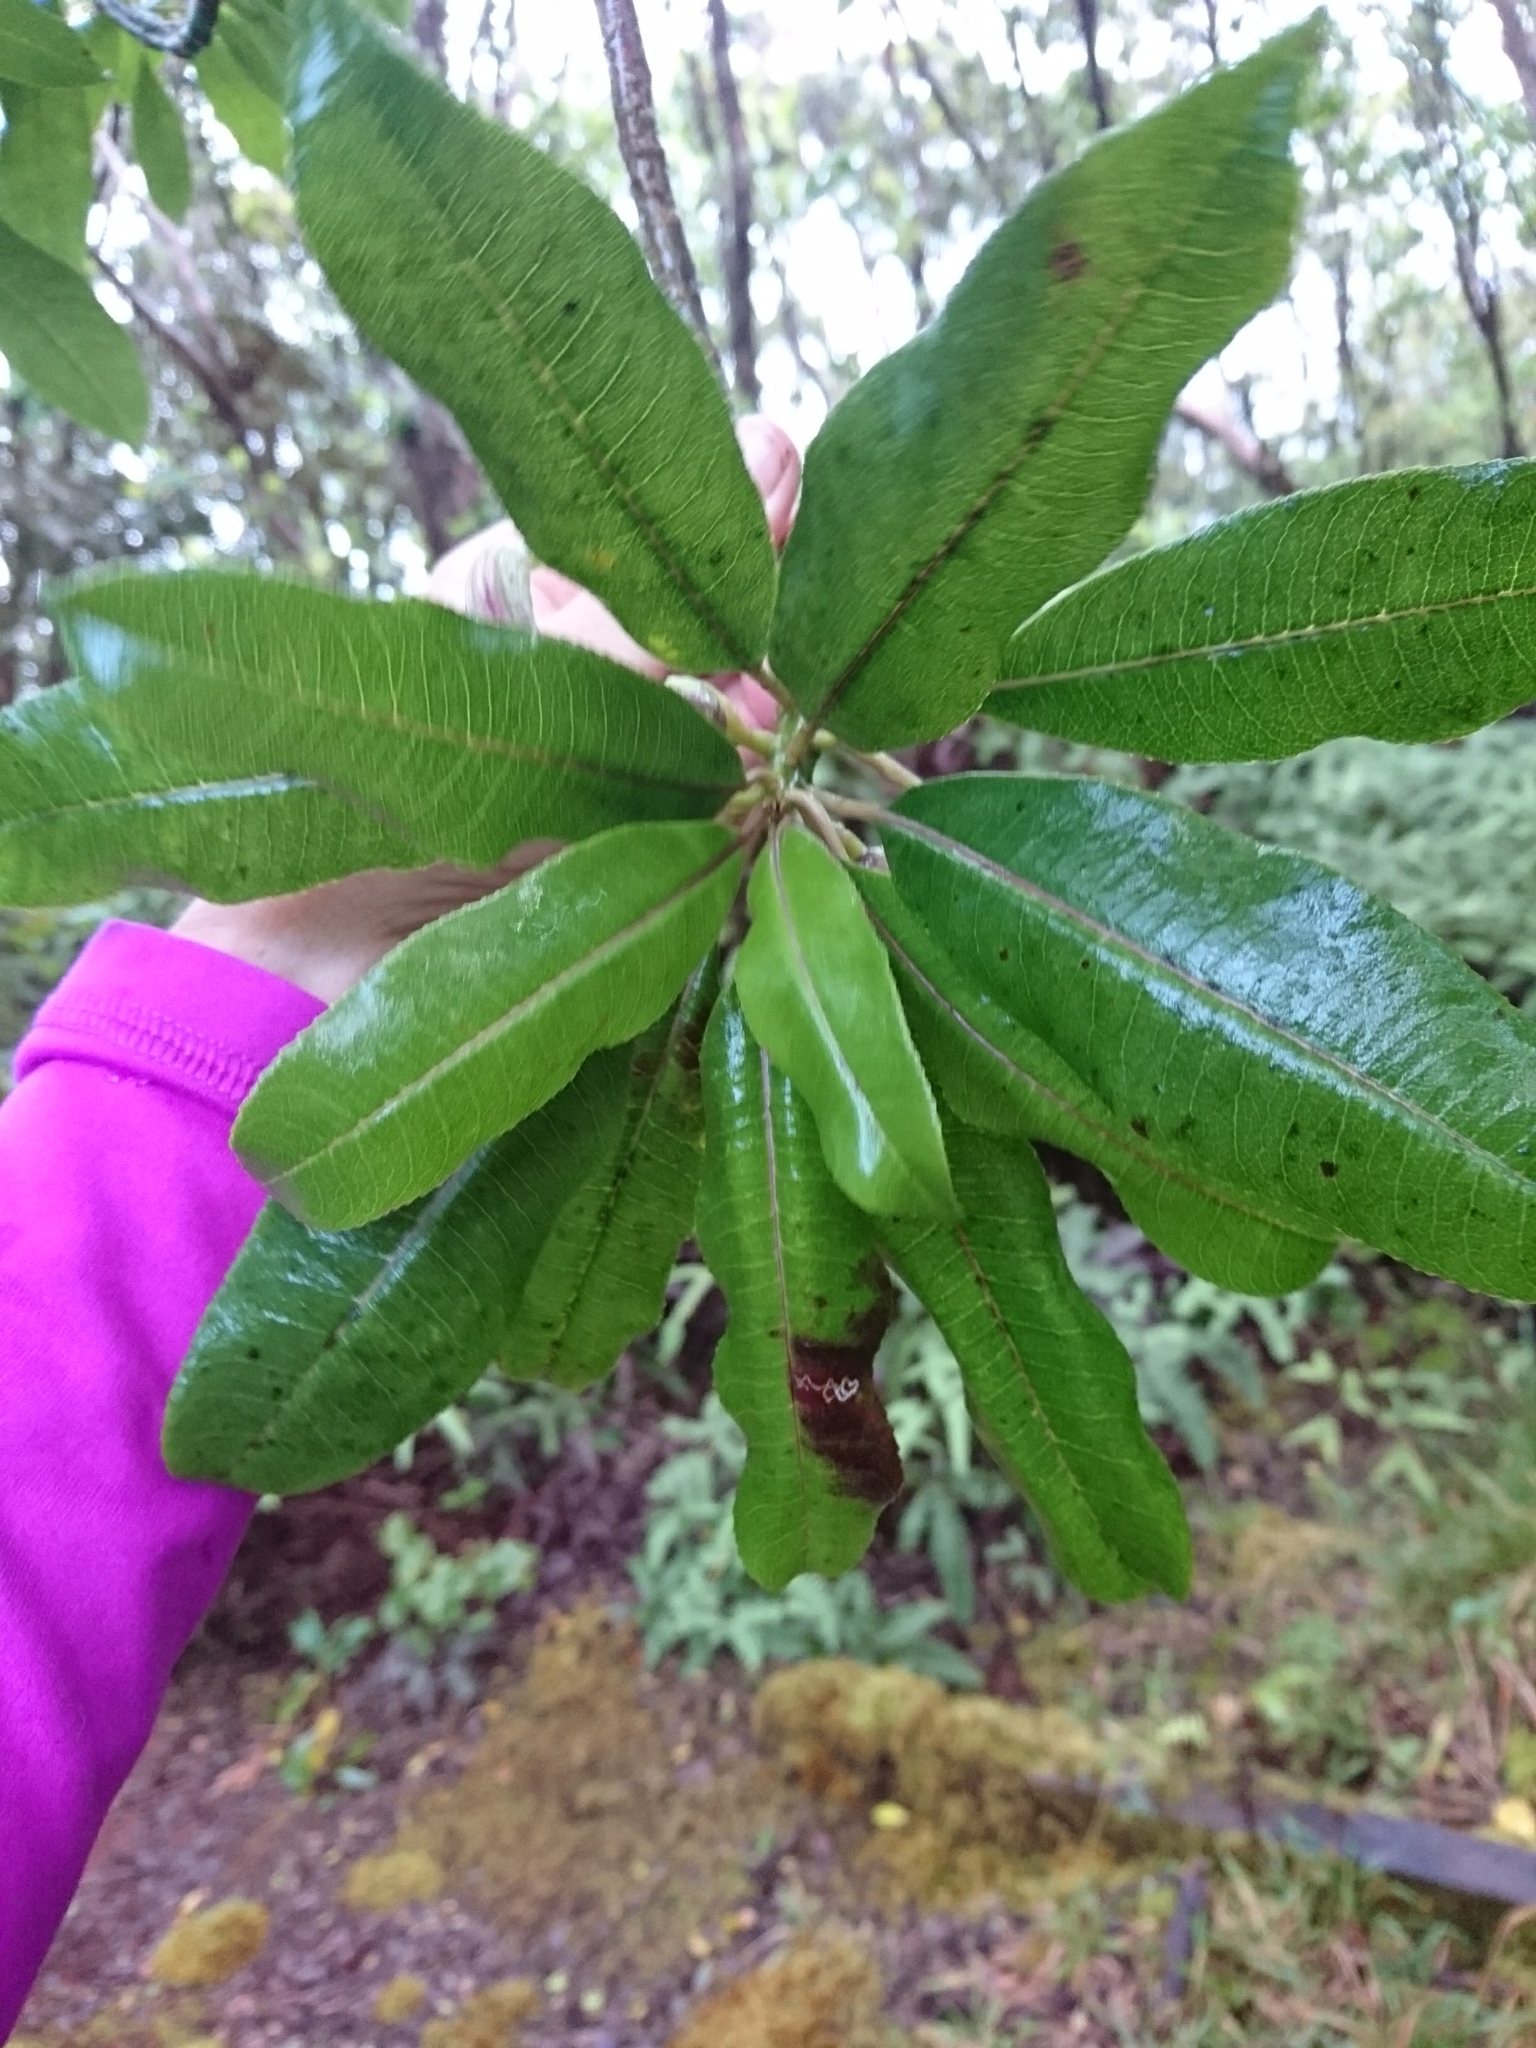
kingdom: Plantae
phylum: Tracheophyta
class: Magnoliopsida
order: Asterales
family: Campanulaceae
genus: Clermontia
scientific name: Clermontia fauriei
